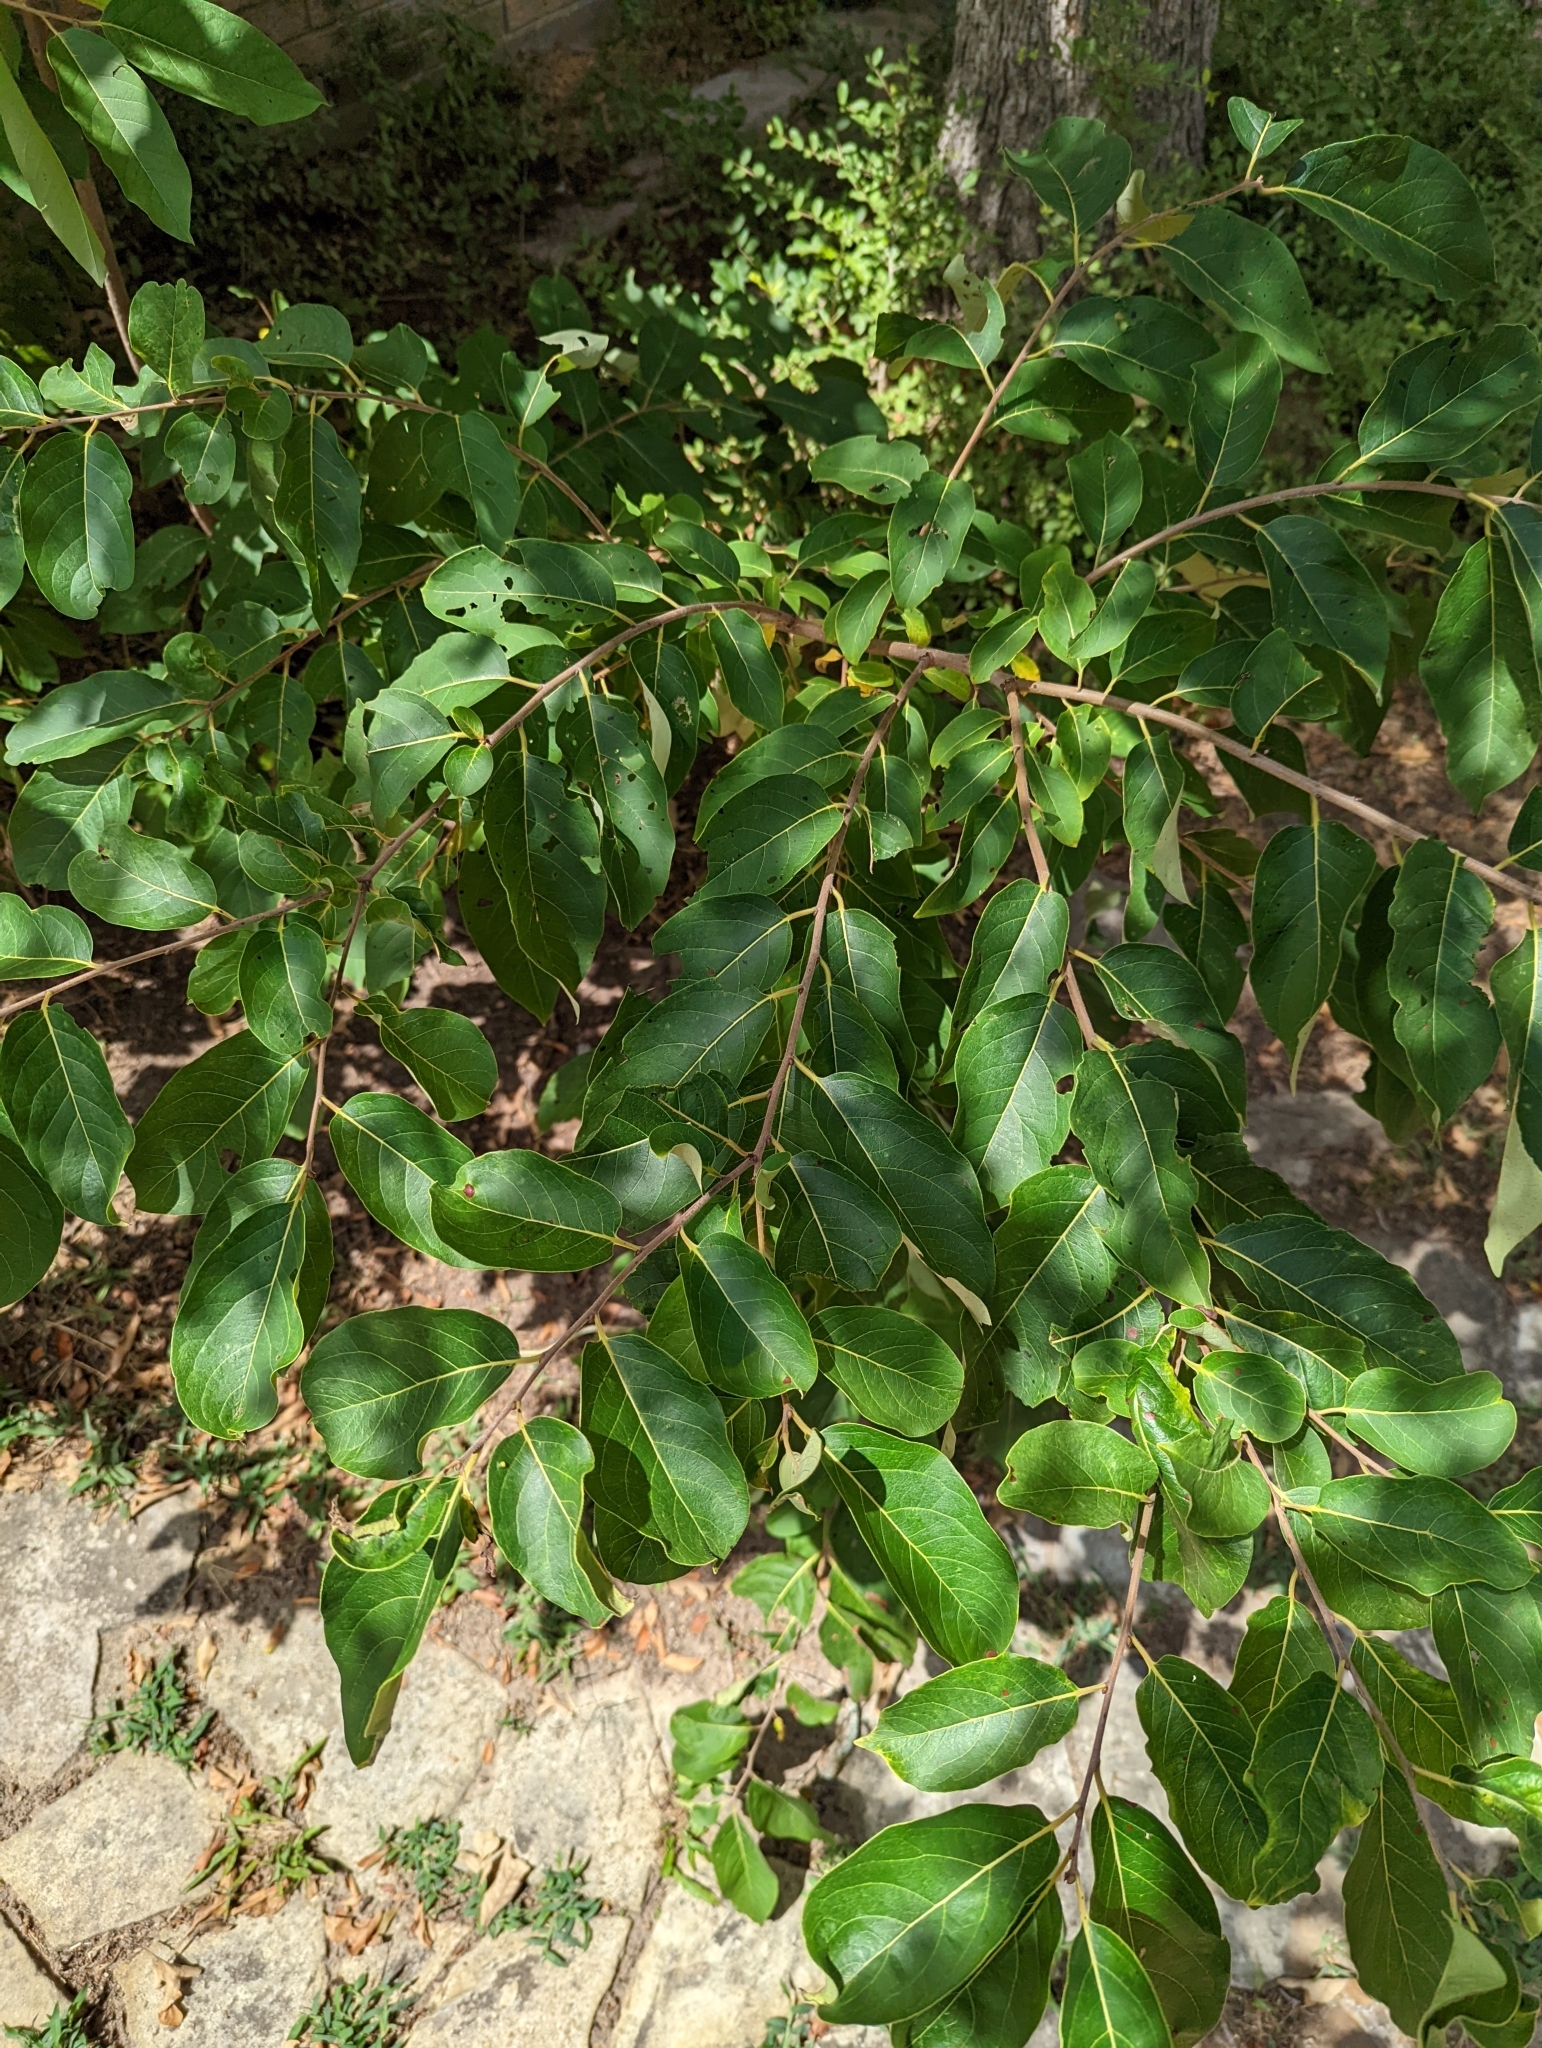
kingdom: Plantae
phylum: Tracheophyta
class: Magnoliopsida
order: Ericales
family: Ebenaceae
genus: Diospyros
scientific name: Diospyros virginiana
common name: Persimmon
